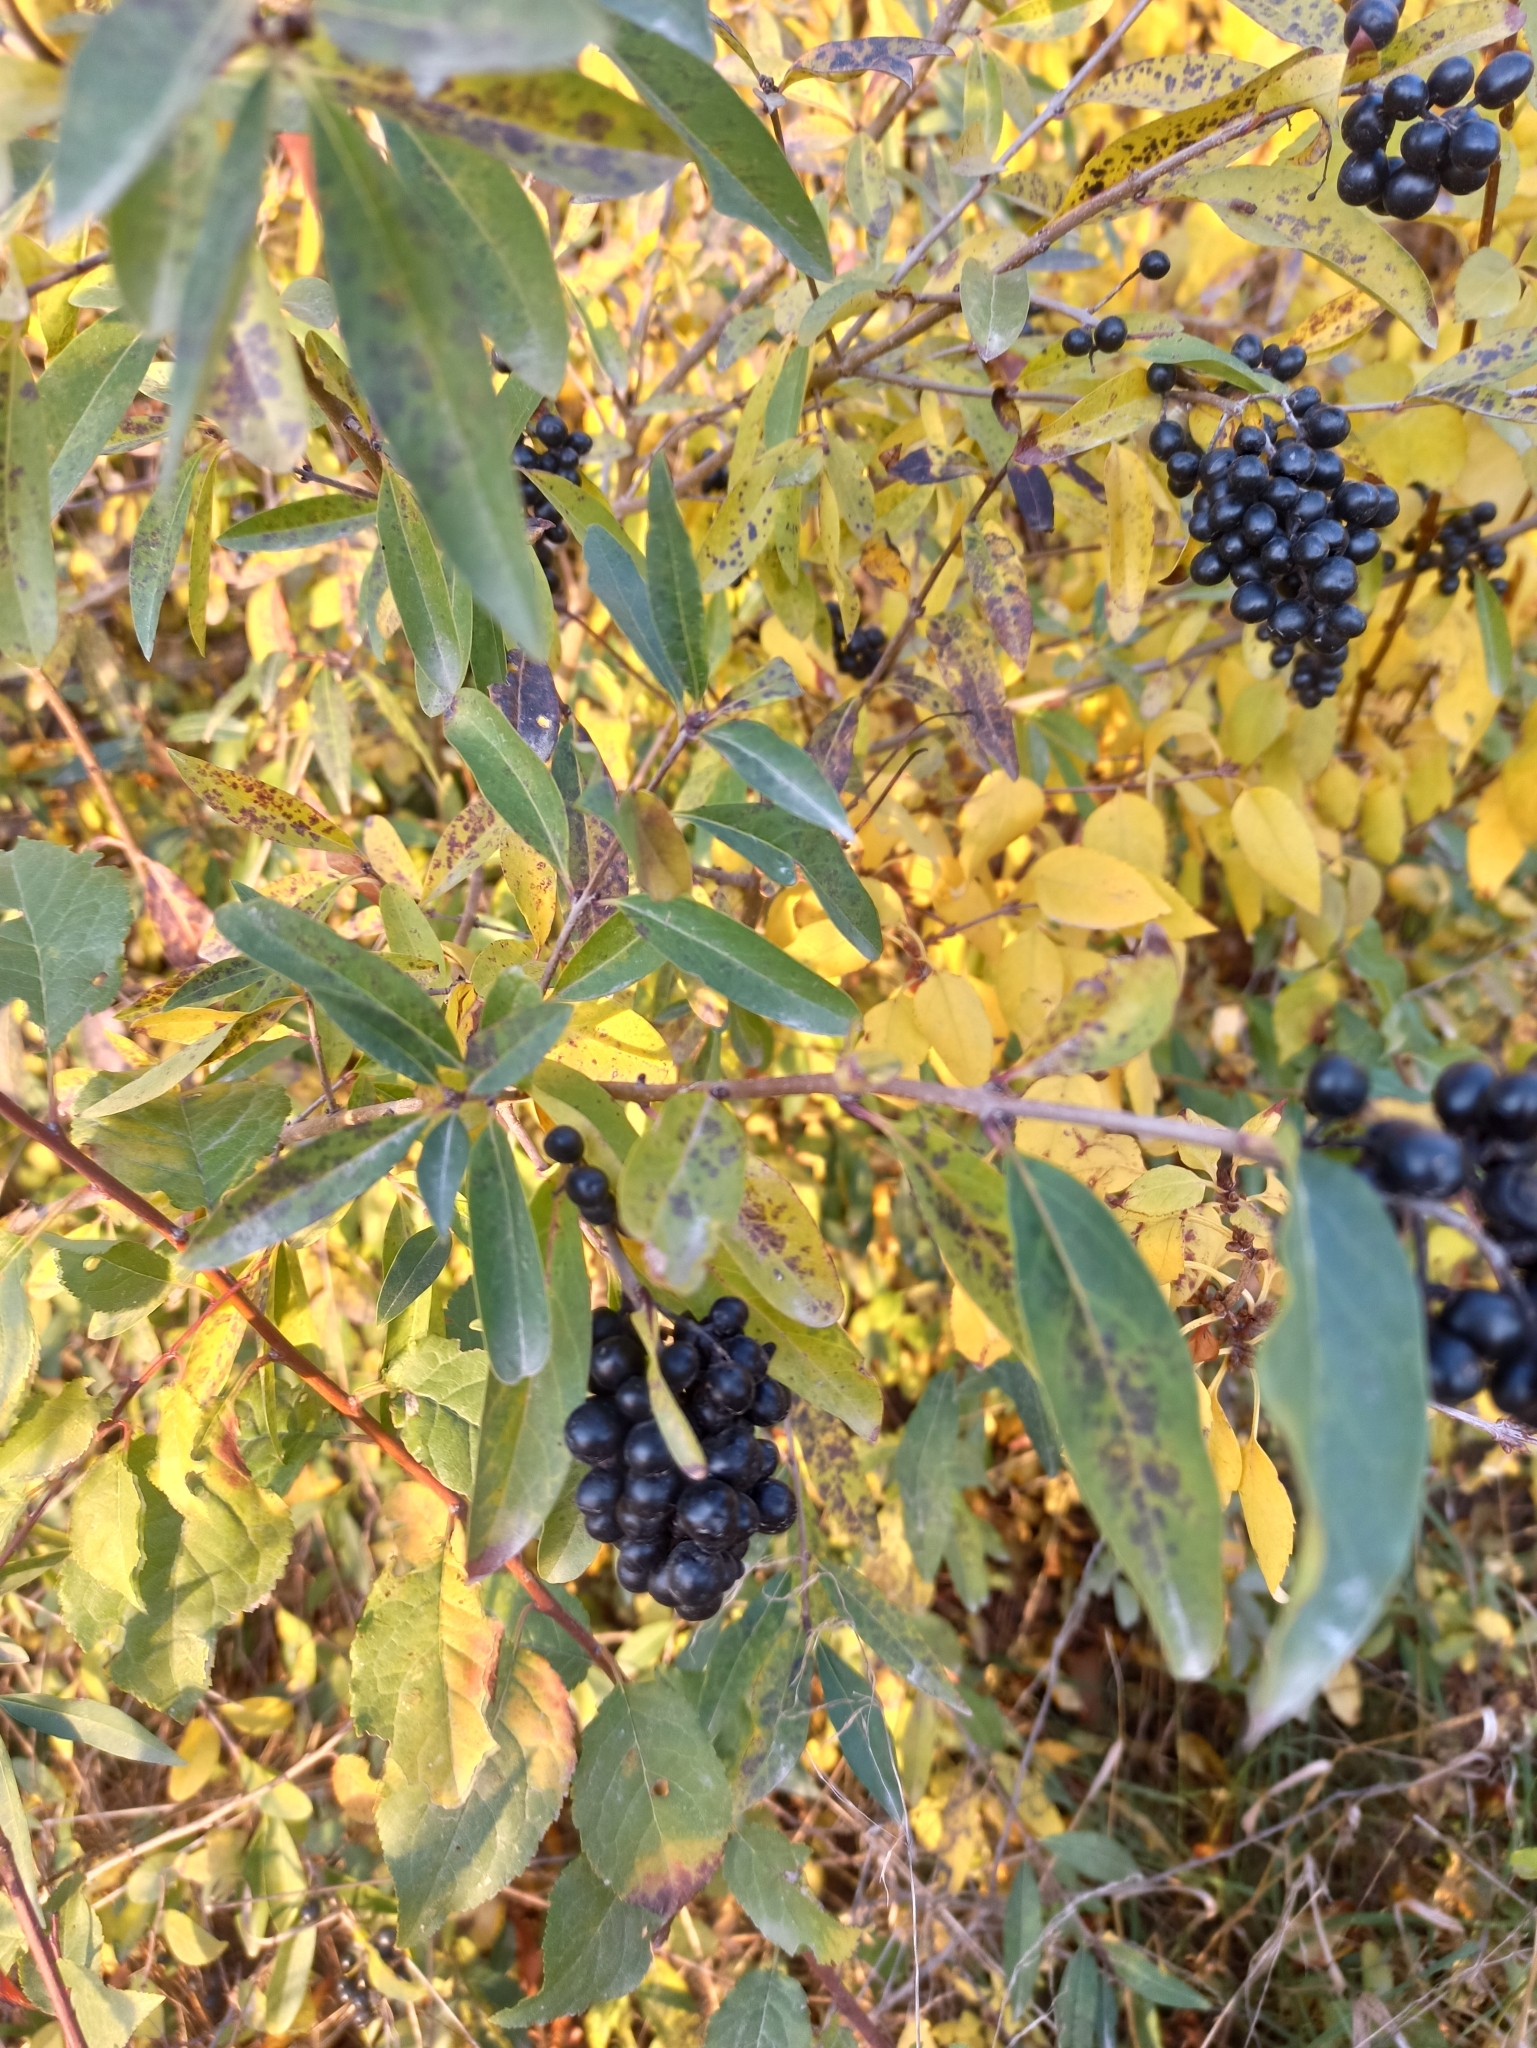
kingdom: Plantae
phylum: Tracheophyta
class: Magnoliopsida
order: Lamiales
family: Oleaceae
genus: Ligustrum
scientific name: Ligustrum vulgare
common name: Wild privet
